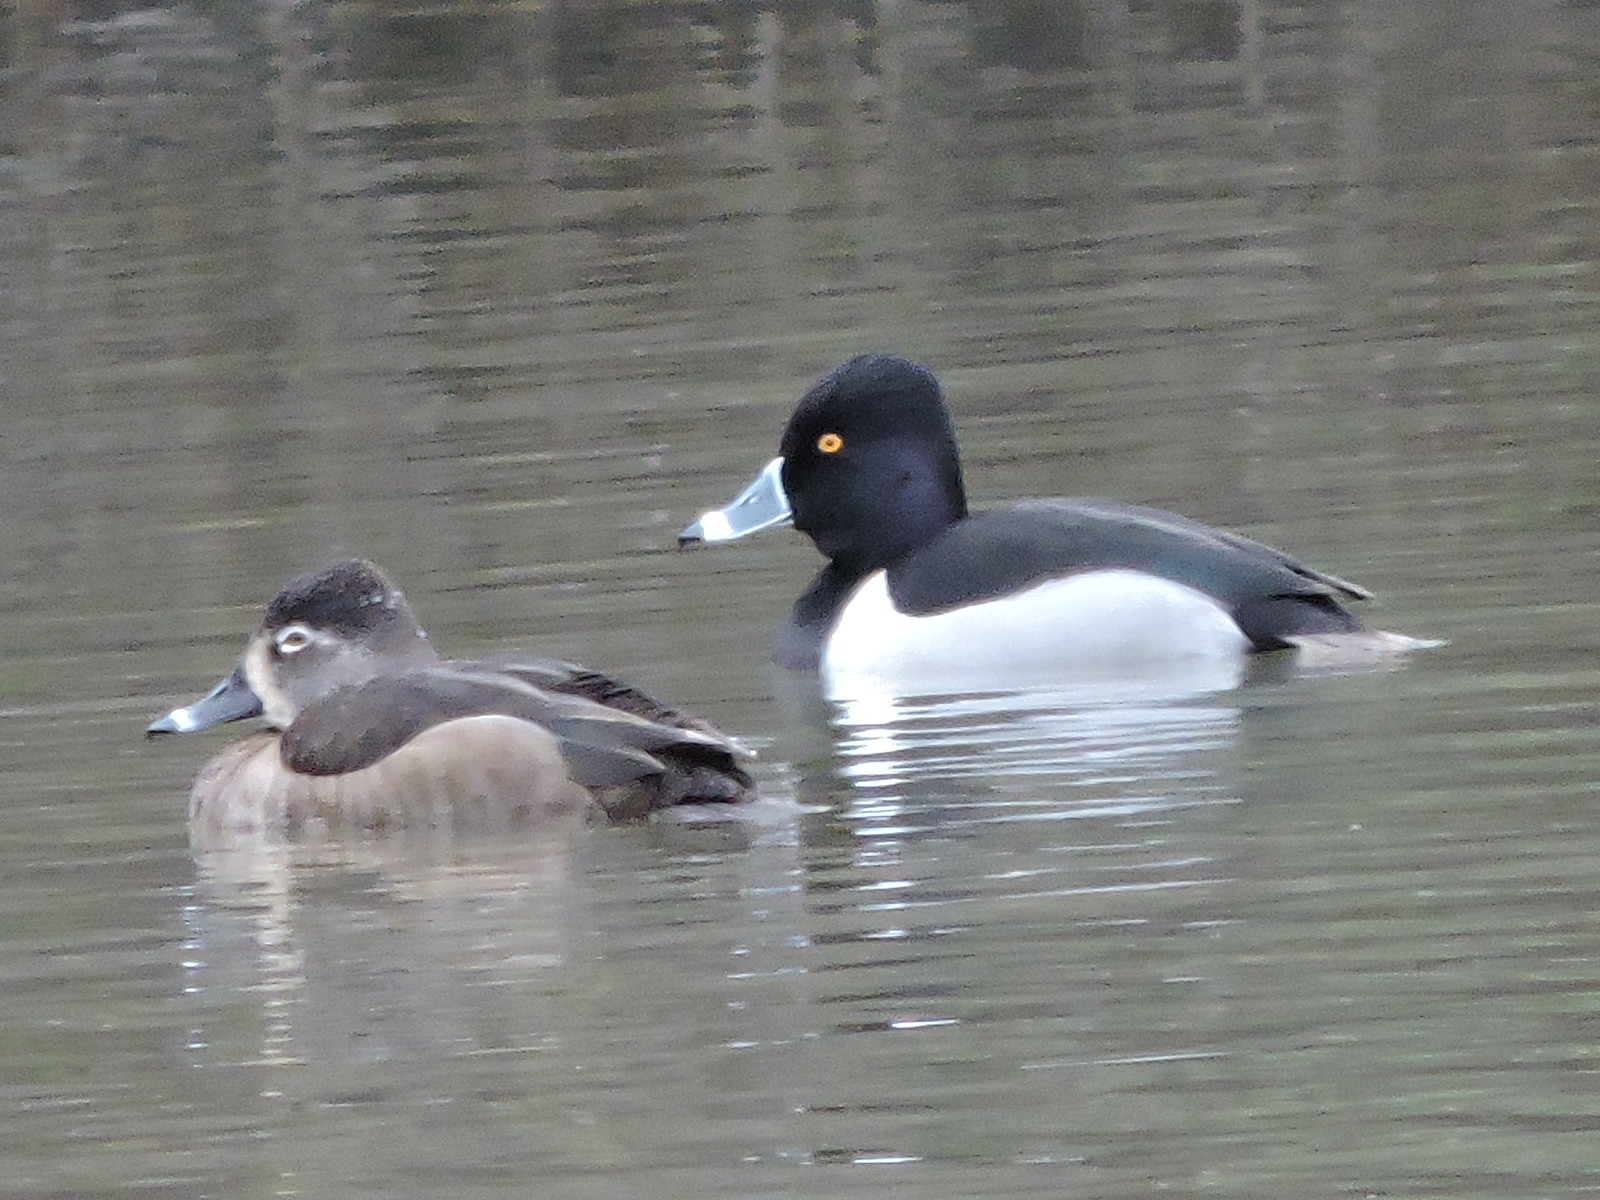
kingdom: Animalia
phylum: Chordata
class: Aves
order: Anseriformes
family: Anatidae
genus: Aythya
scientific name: Aythya collaris
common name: Ring-necked duck
